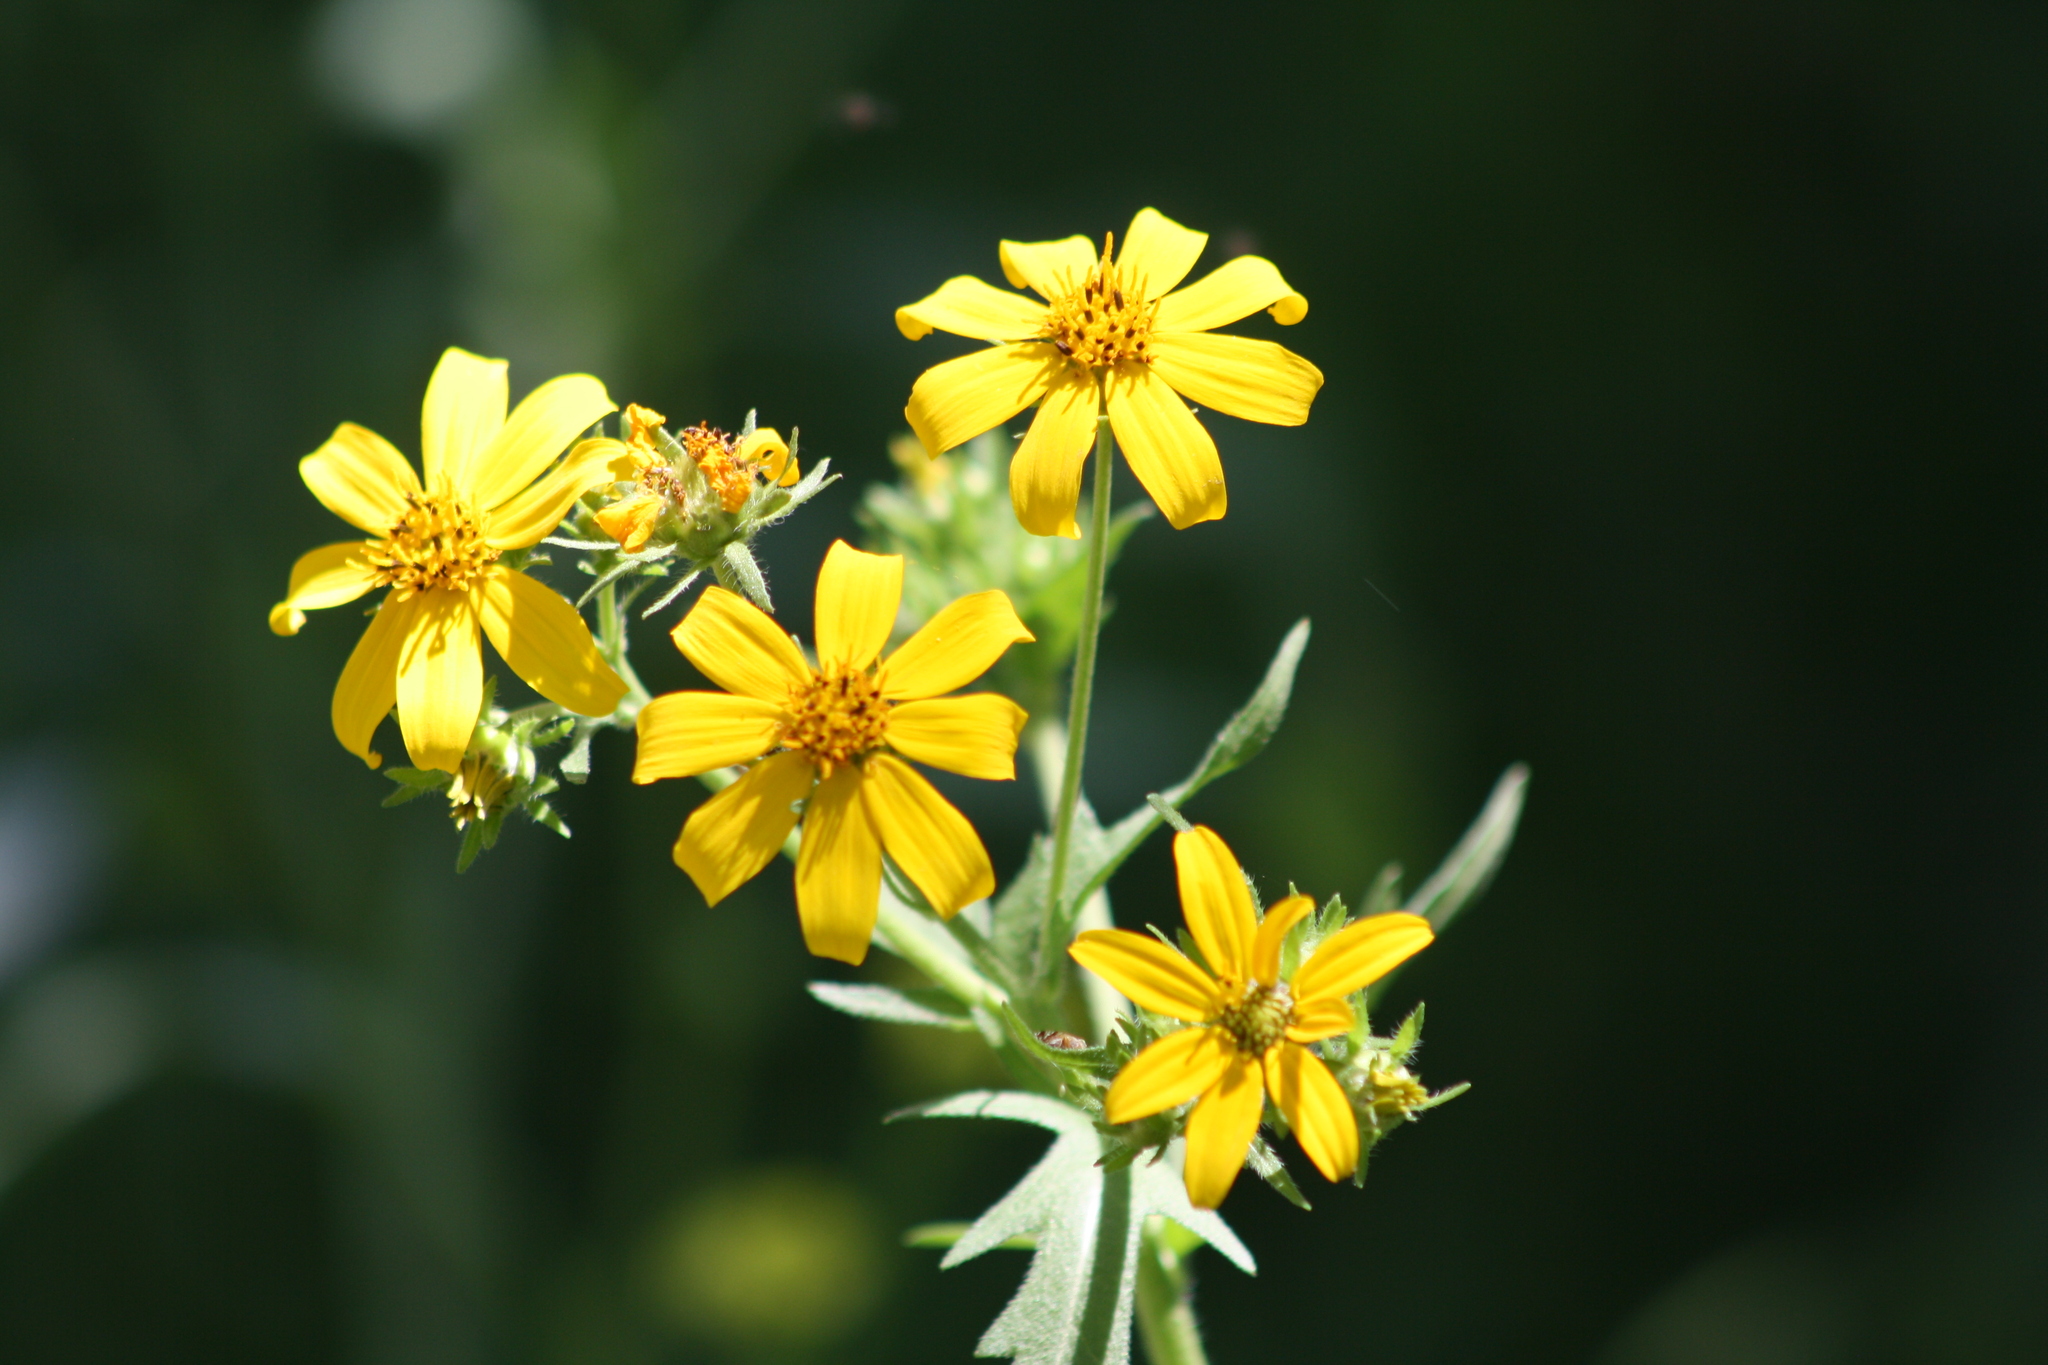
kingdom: Plantae
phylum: Tracheophyta
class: Magnoliopsida
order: Asterales
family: Asteraceae
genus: Engelmannia
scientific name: Engelmannia peristenia
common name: Engelmann's daisy
